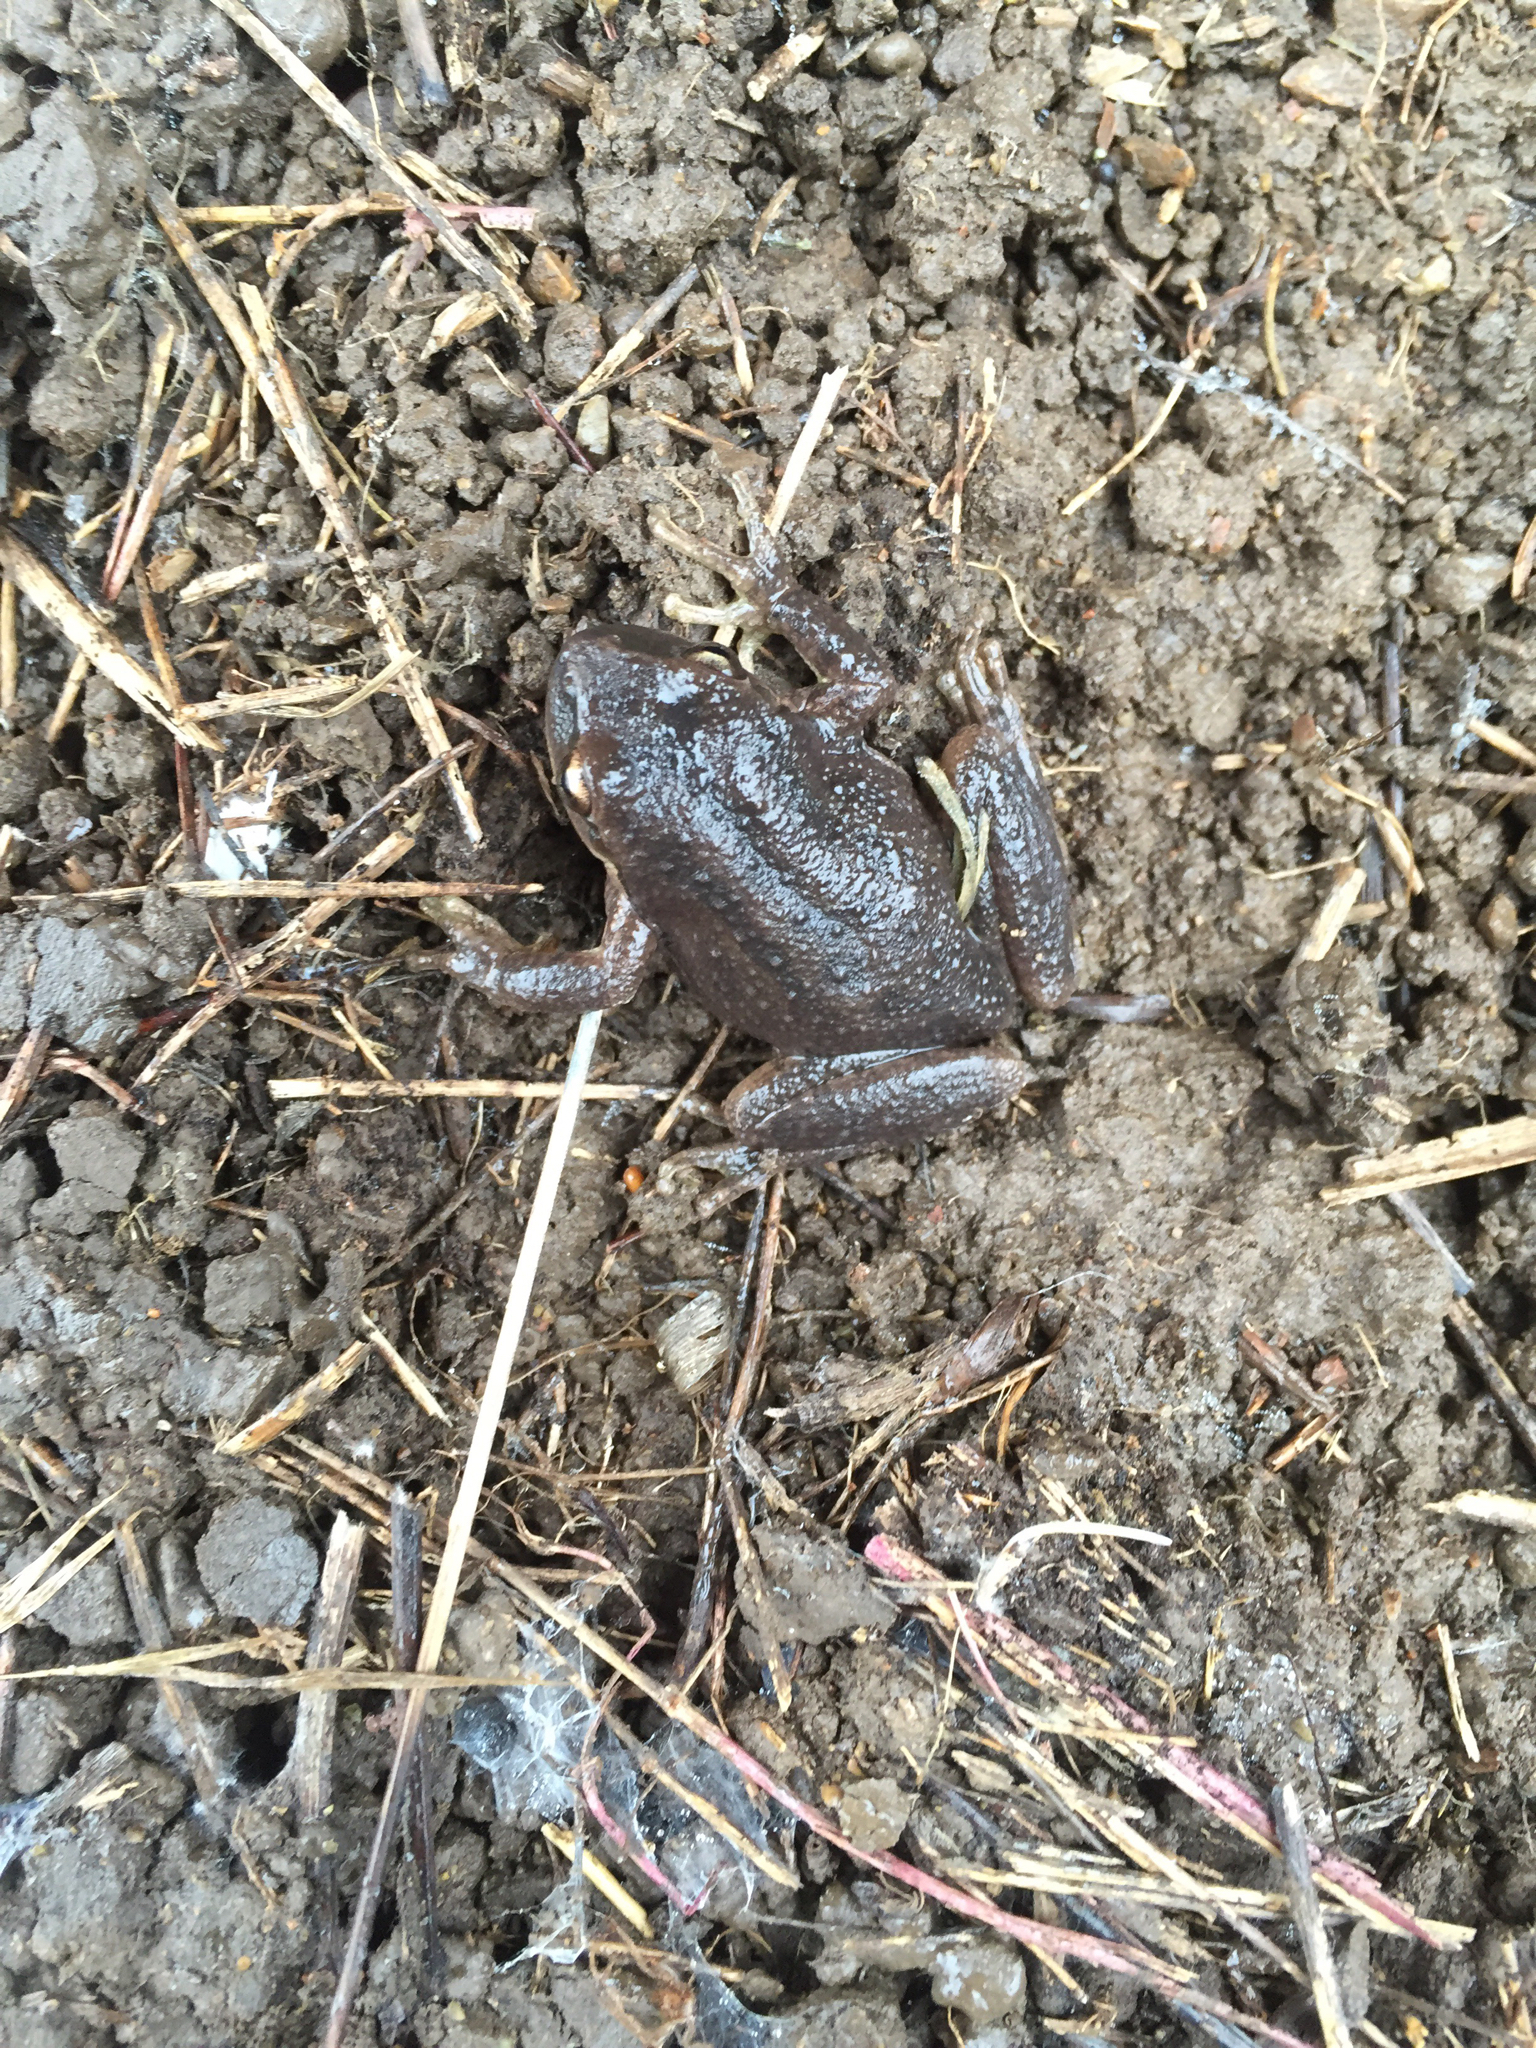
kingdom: Animalia
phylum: Chordata
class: Amphibia
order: Anura
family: Hylidae
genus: Pseudacris
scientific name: Pseudacris regilla
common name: Pacific chorus frog
